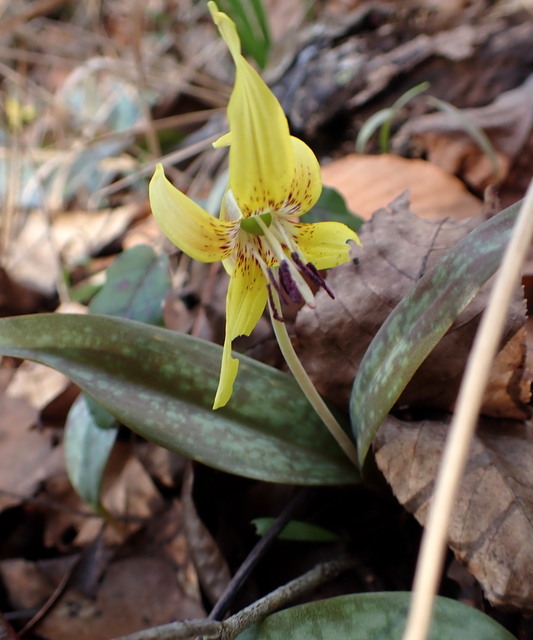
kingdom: Plantae
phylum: Tracheophyta
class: Liliopsida
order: Liliales
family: Liliaceae
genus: Erythronium
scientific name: Erythronium umbilicatum
